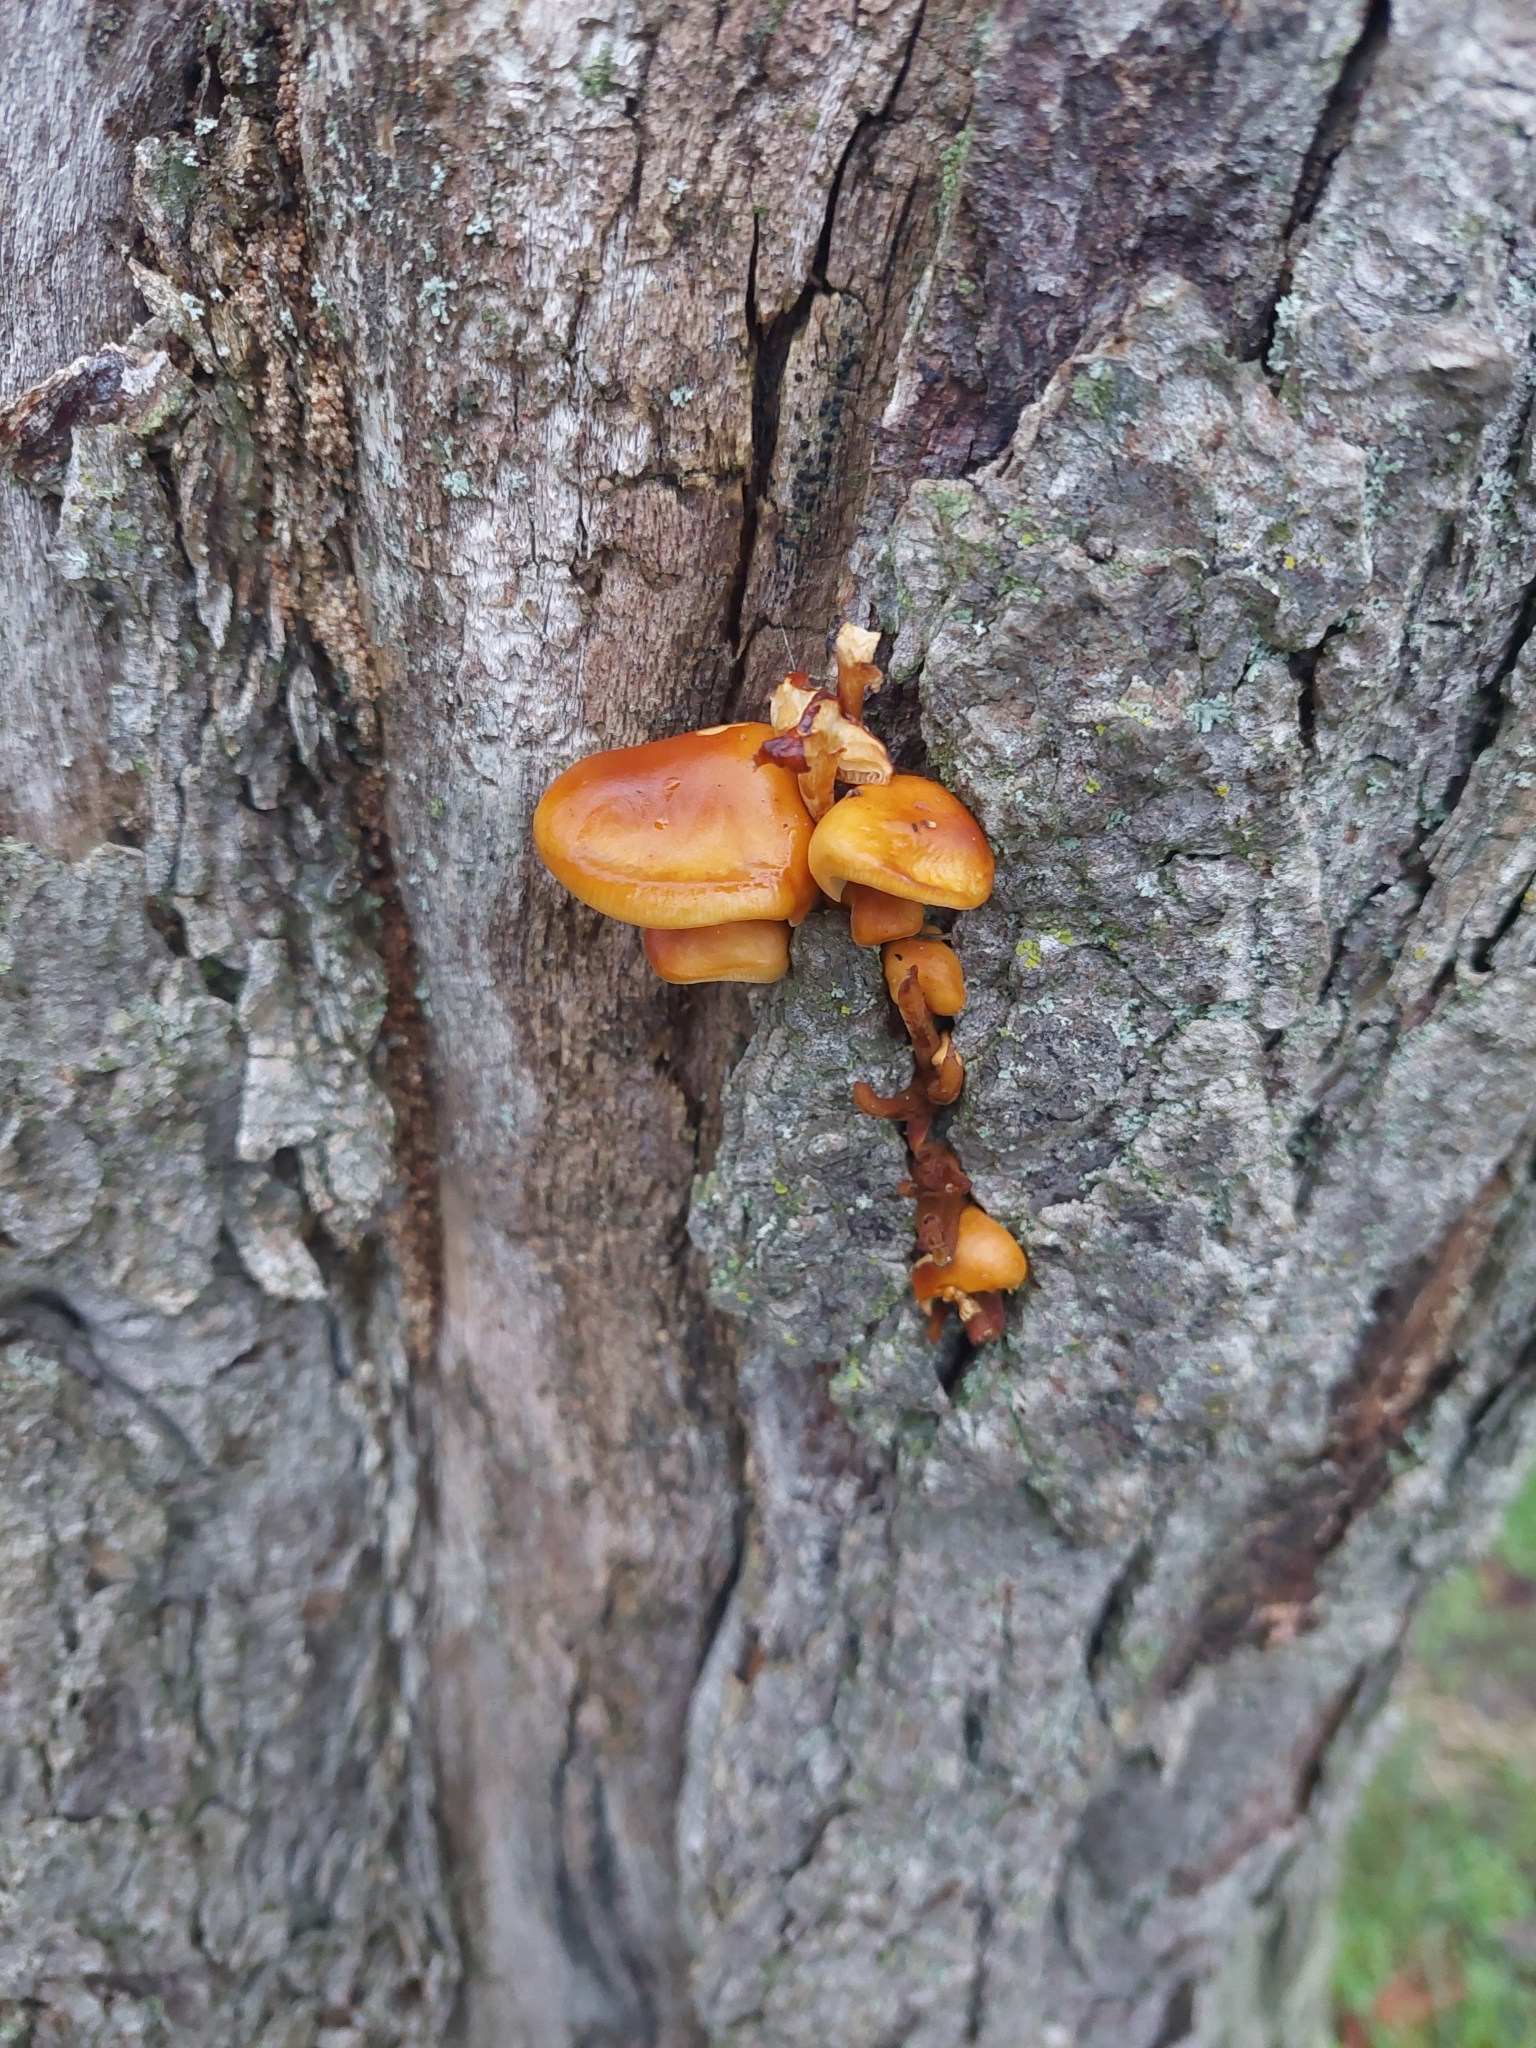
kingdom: Fungi
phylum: Basidiomycota
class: Agaricomycetes
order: Agaricales
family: Physalacriaceae
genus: Flammulina
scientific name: Flammulina
